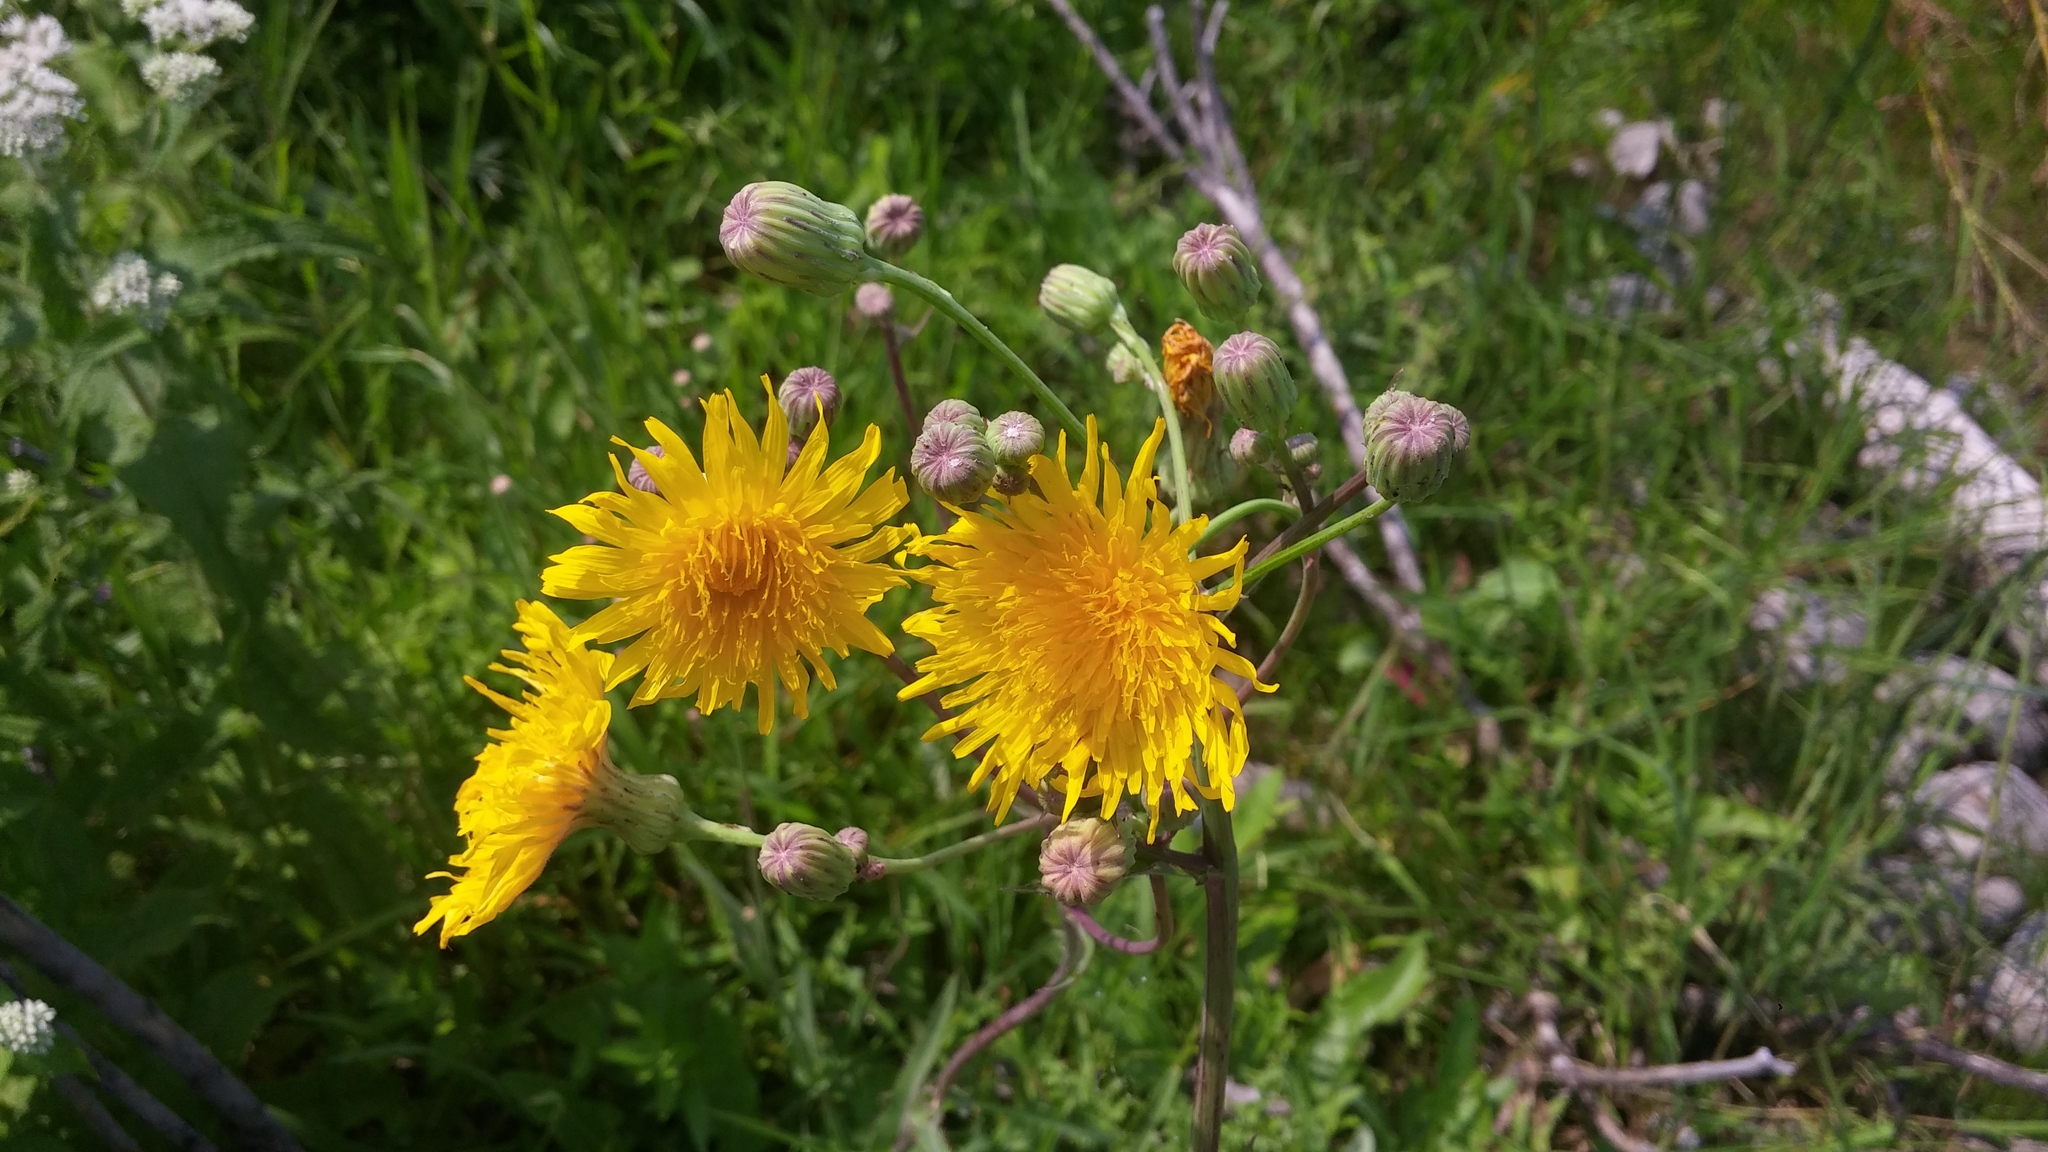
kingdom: Plantae
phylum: Tracheophyta
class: Magnoliopsida
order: Asterales
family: Asteraceae
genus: Sonchus
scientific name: Sonchus arvensis
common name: Perennial sow-thistle
